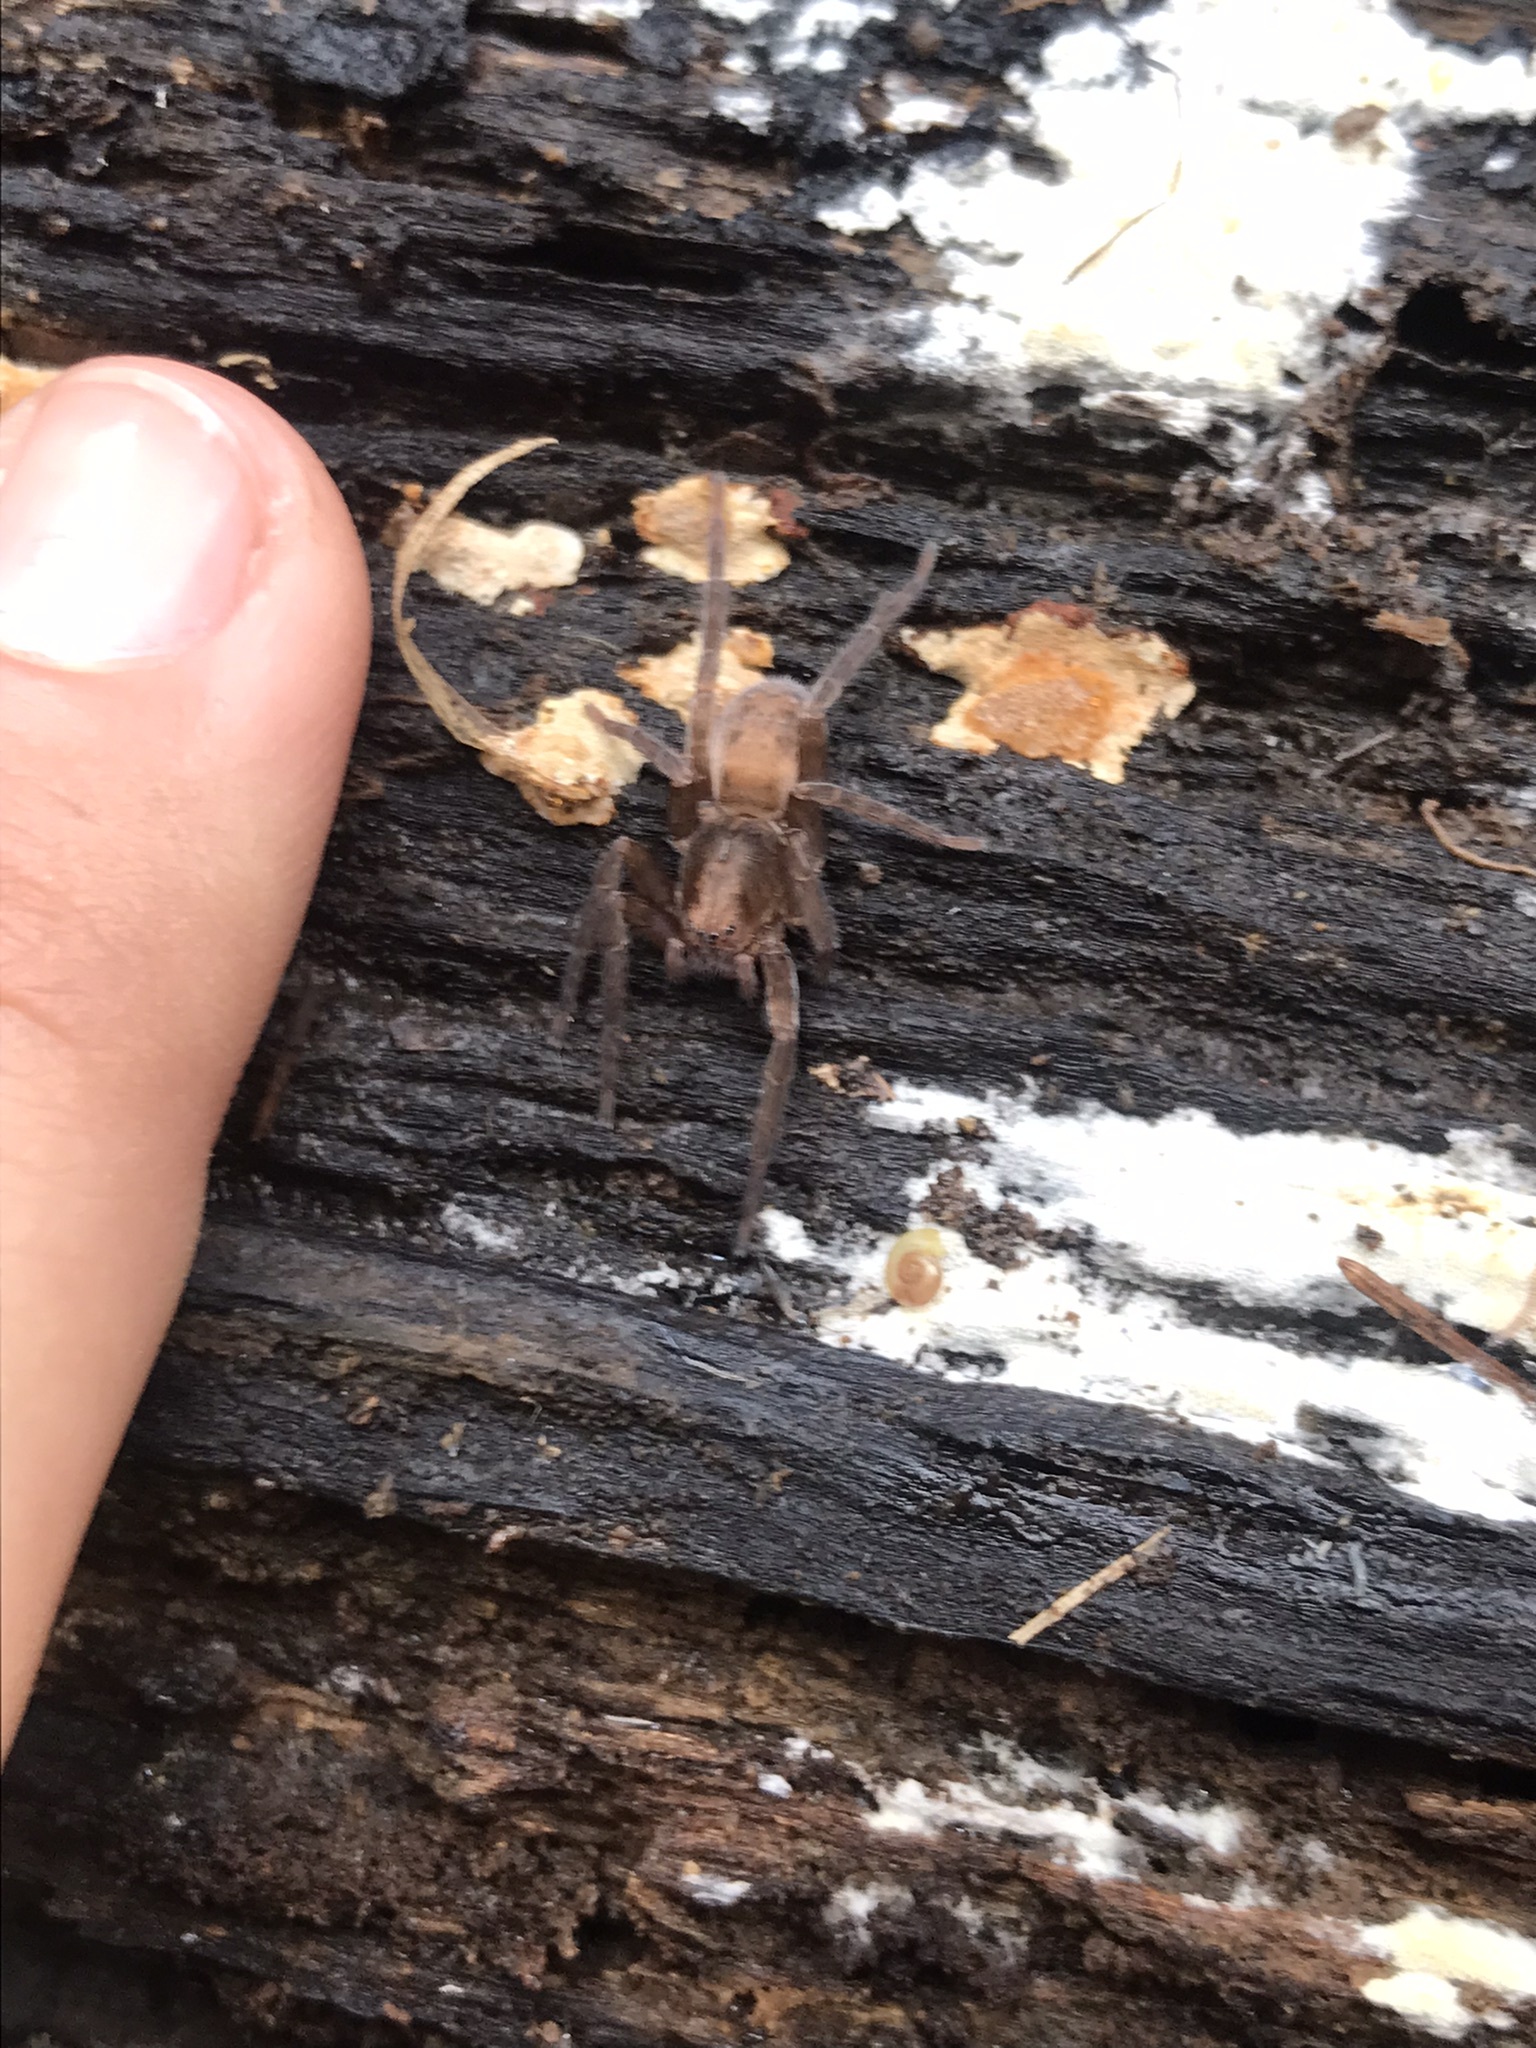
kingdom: Animalia
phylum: Arthropoda
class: Arachnida
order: Araneae
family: Ctenidae
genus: Asthenoctenus
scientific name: Asthenoctenus borellii
